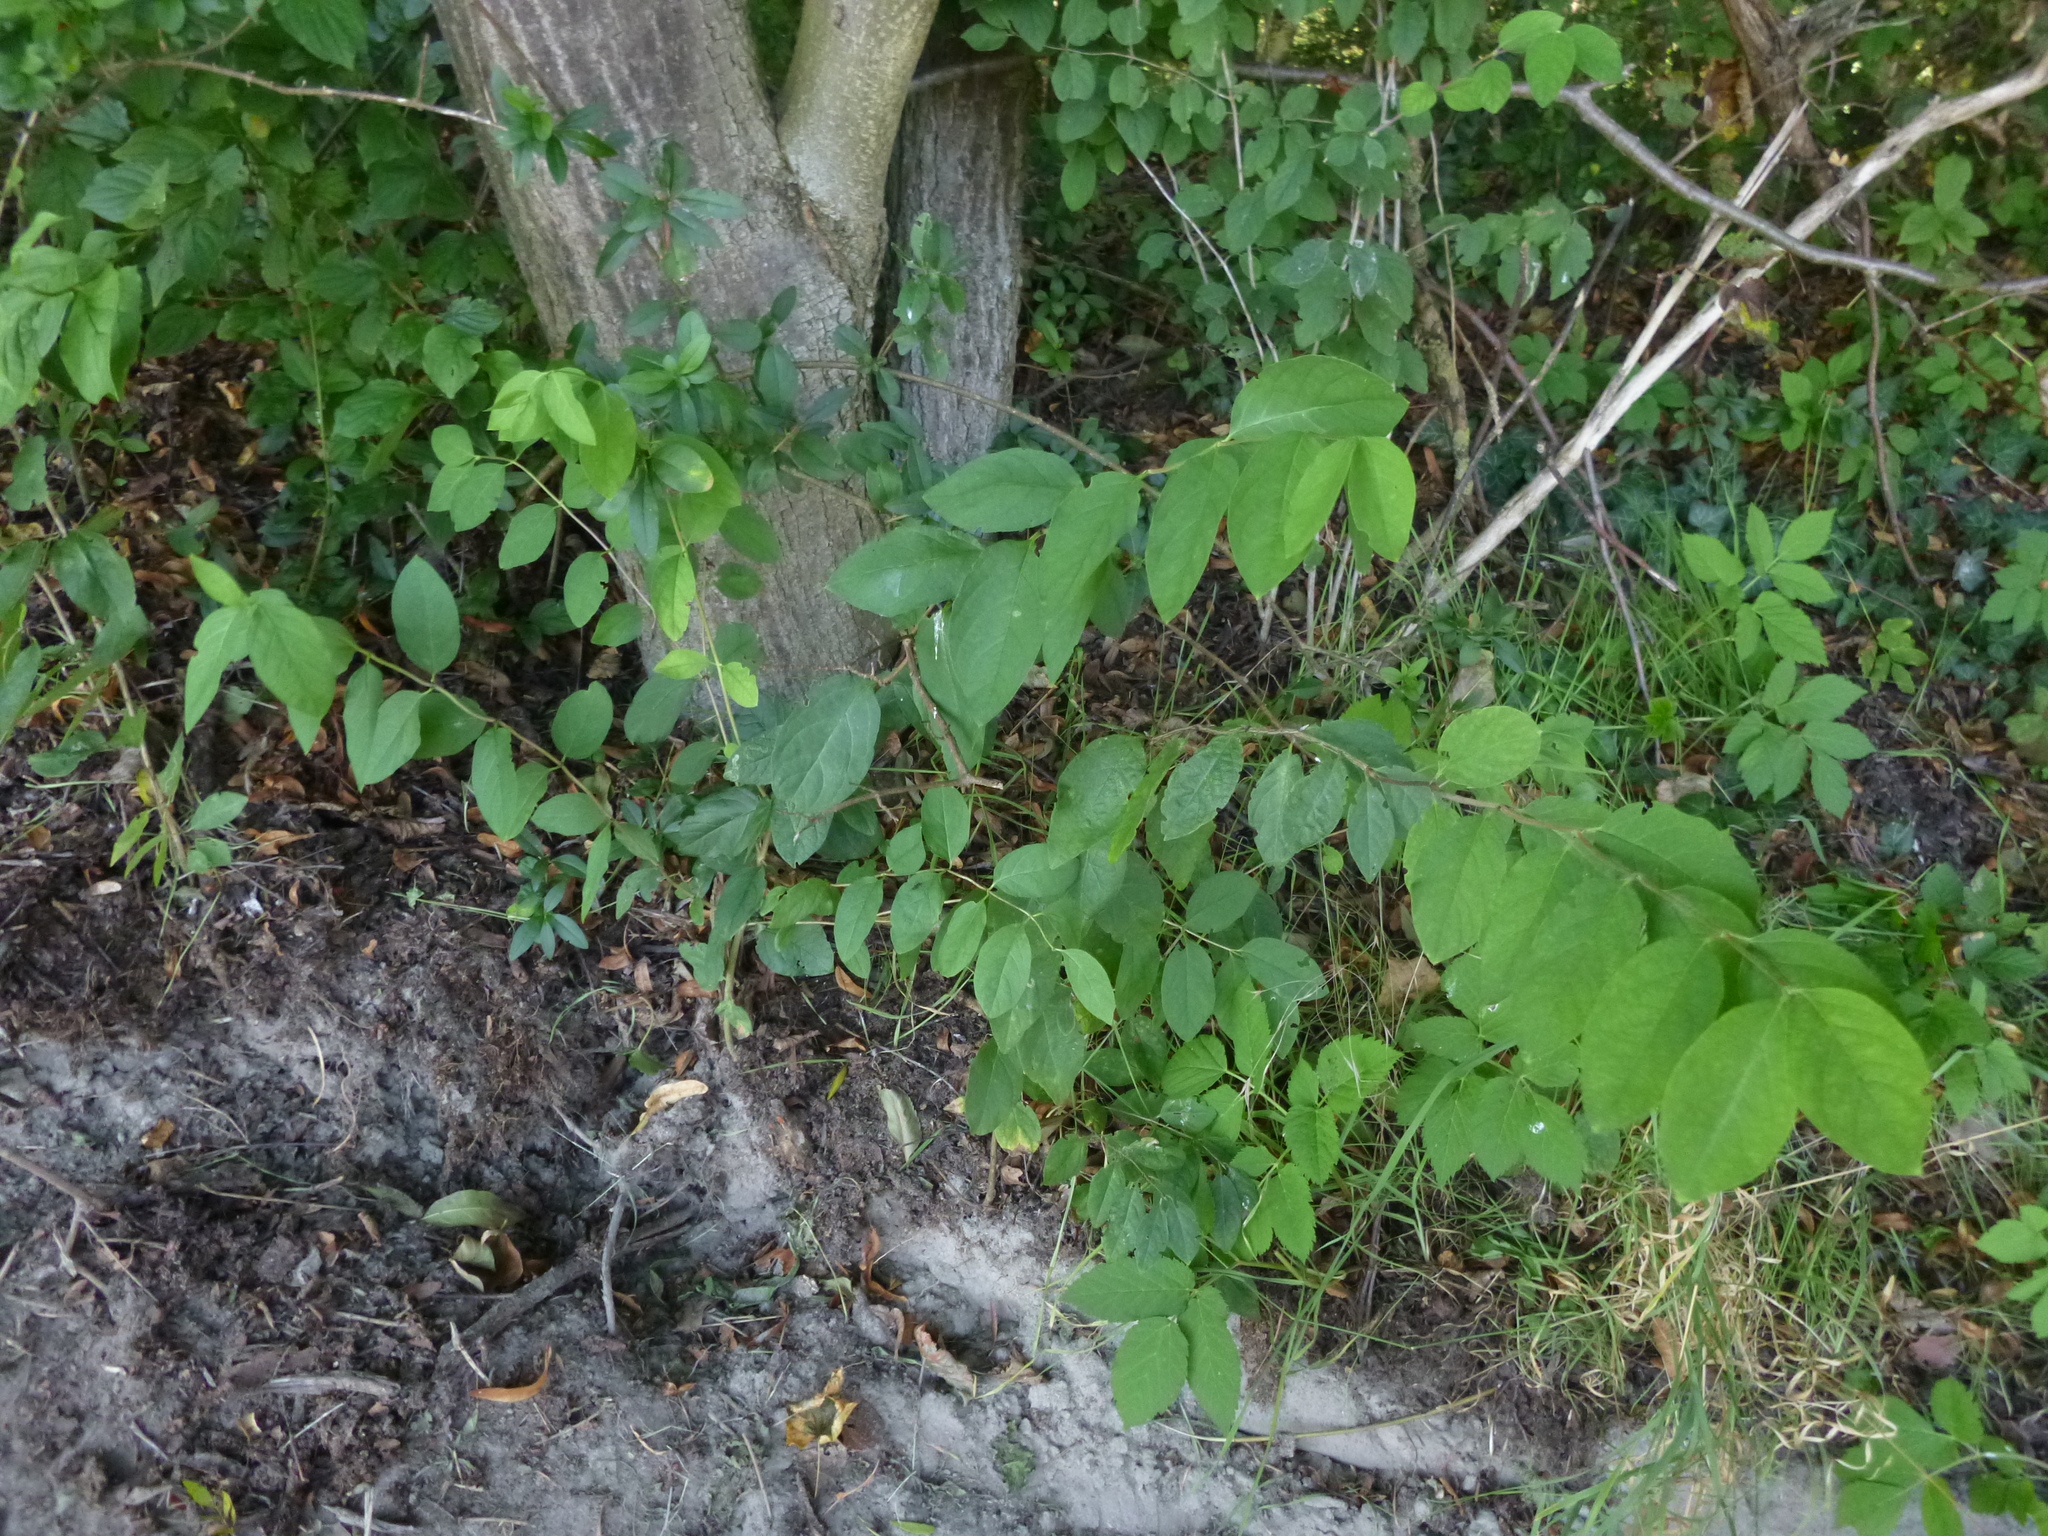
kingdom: Plantae
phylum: Tracheophyta
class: Magnoliopsida
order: Dipsacales
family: Caprifoliaceae
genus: Lonicera
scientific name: Lonicera xylosteum
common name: Fly honeysuckle
